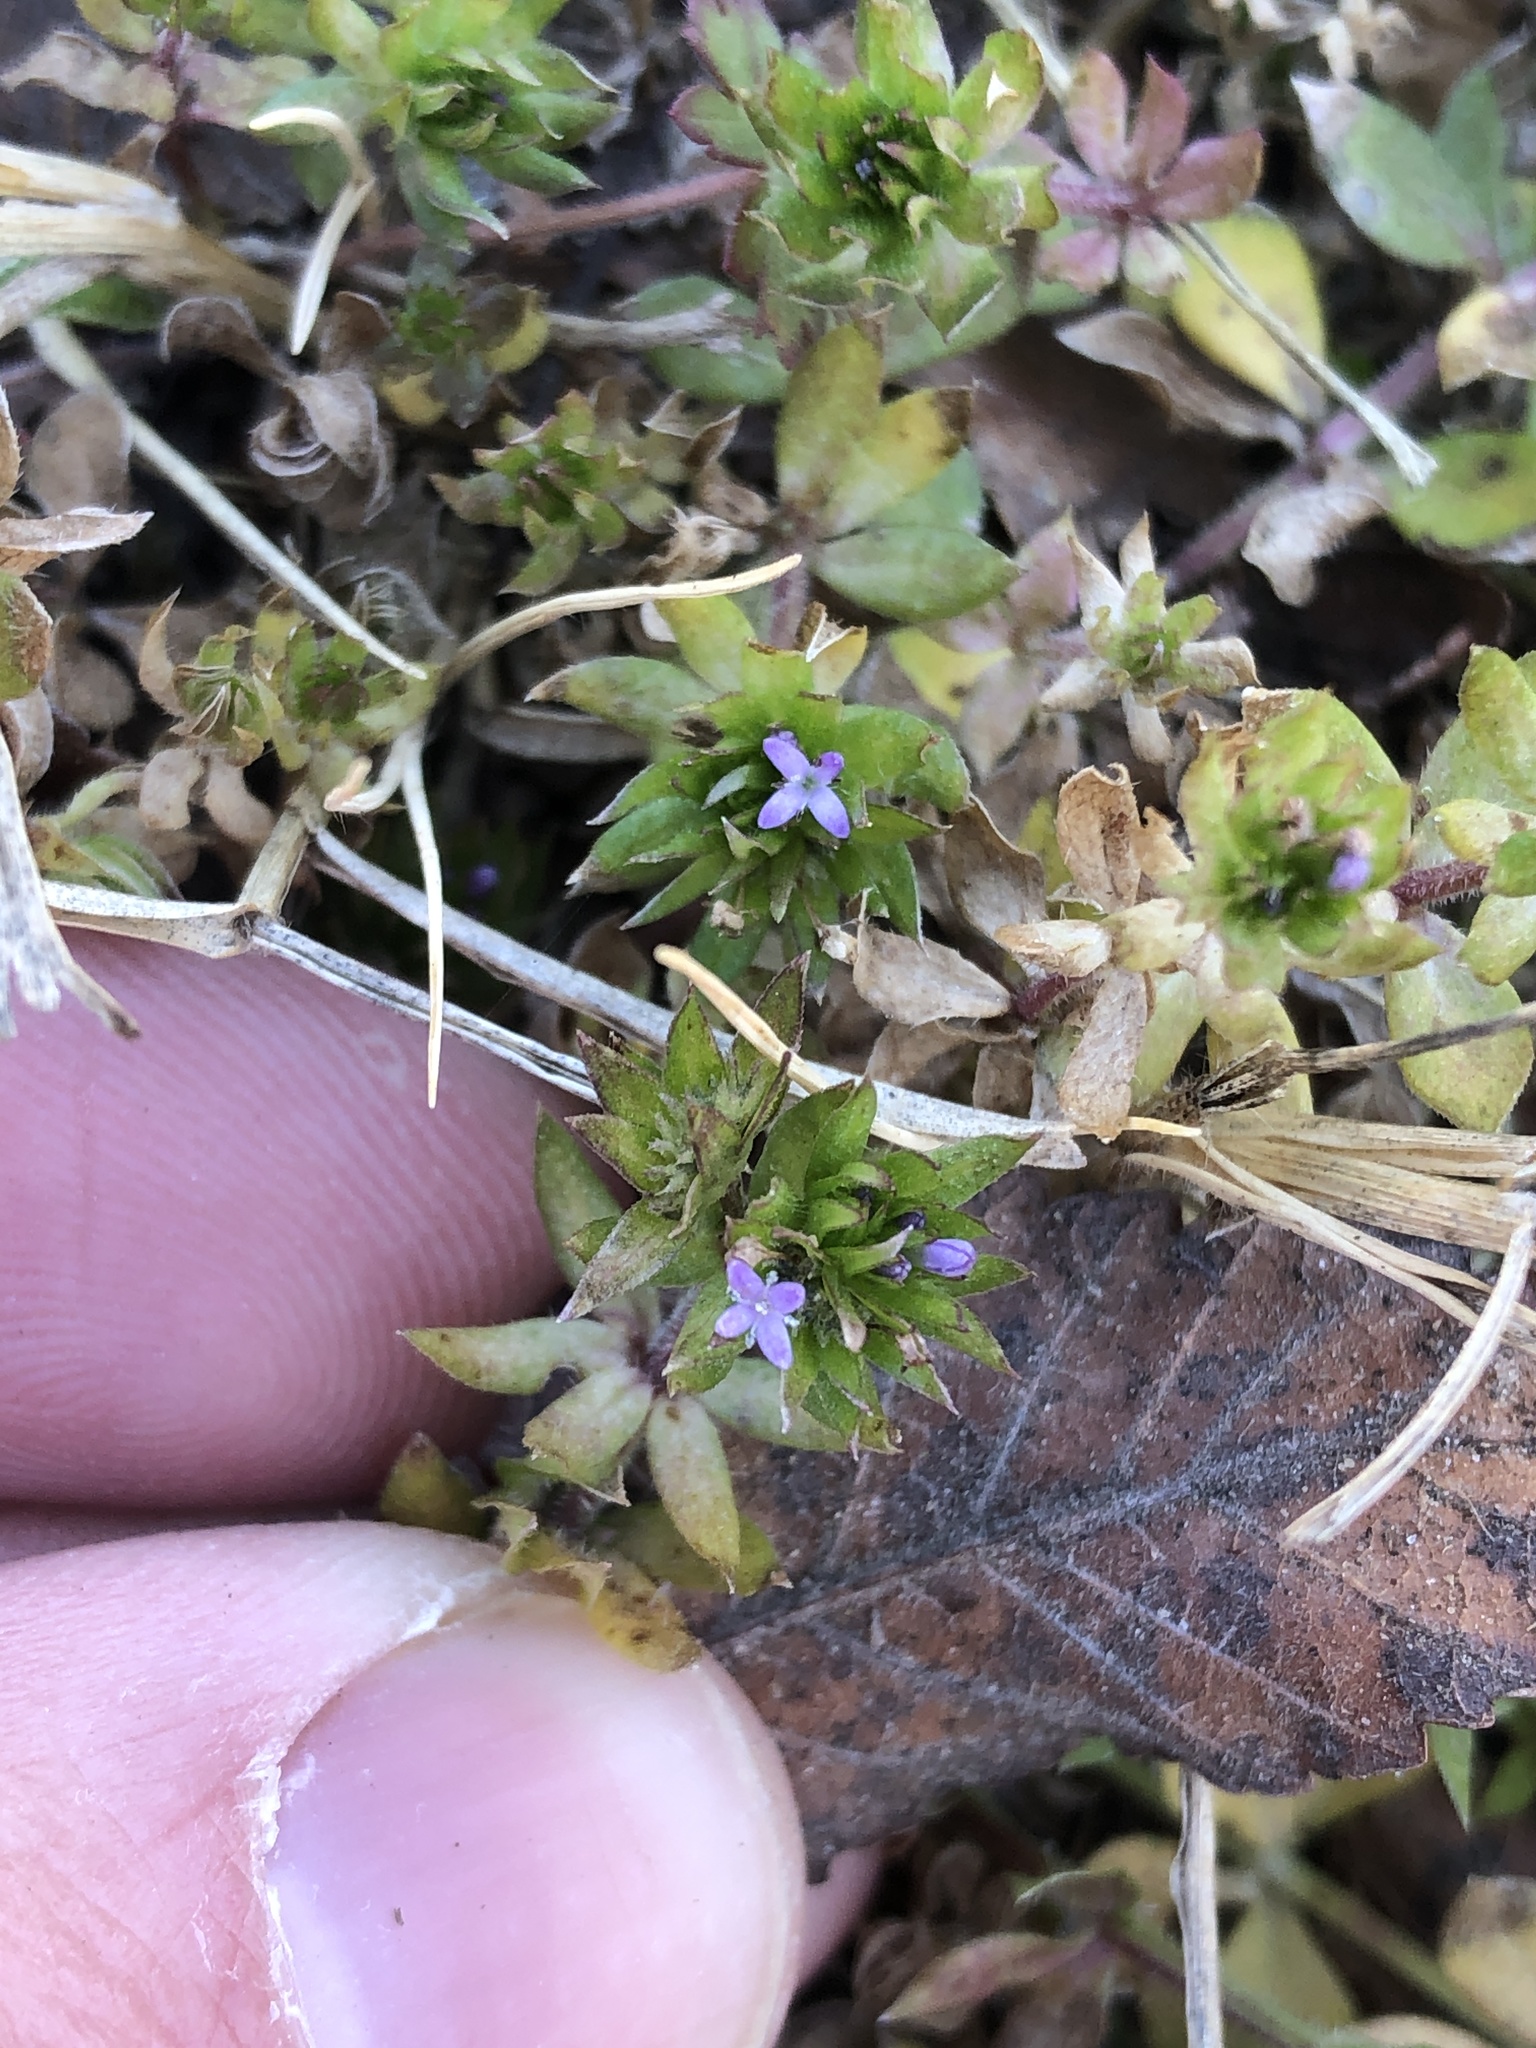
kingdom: Plantae
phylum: Tracheophyta
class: Magnoliopsida
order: Gentianales
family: Rubiaceae
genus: Sherardia
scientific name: Sherardia arvensis
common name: Field madder
